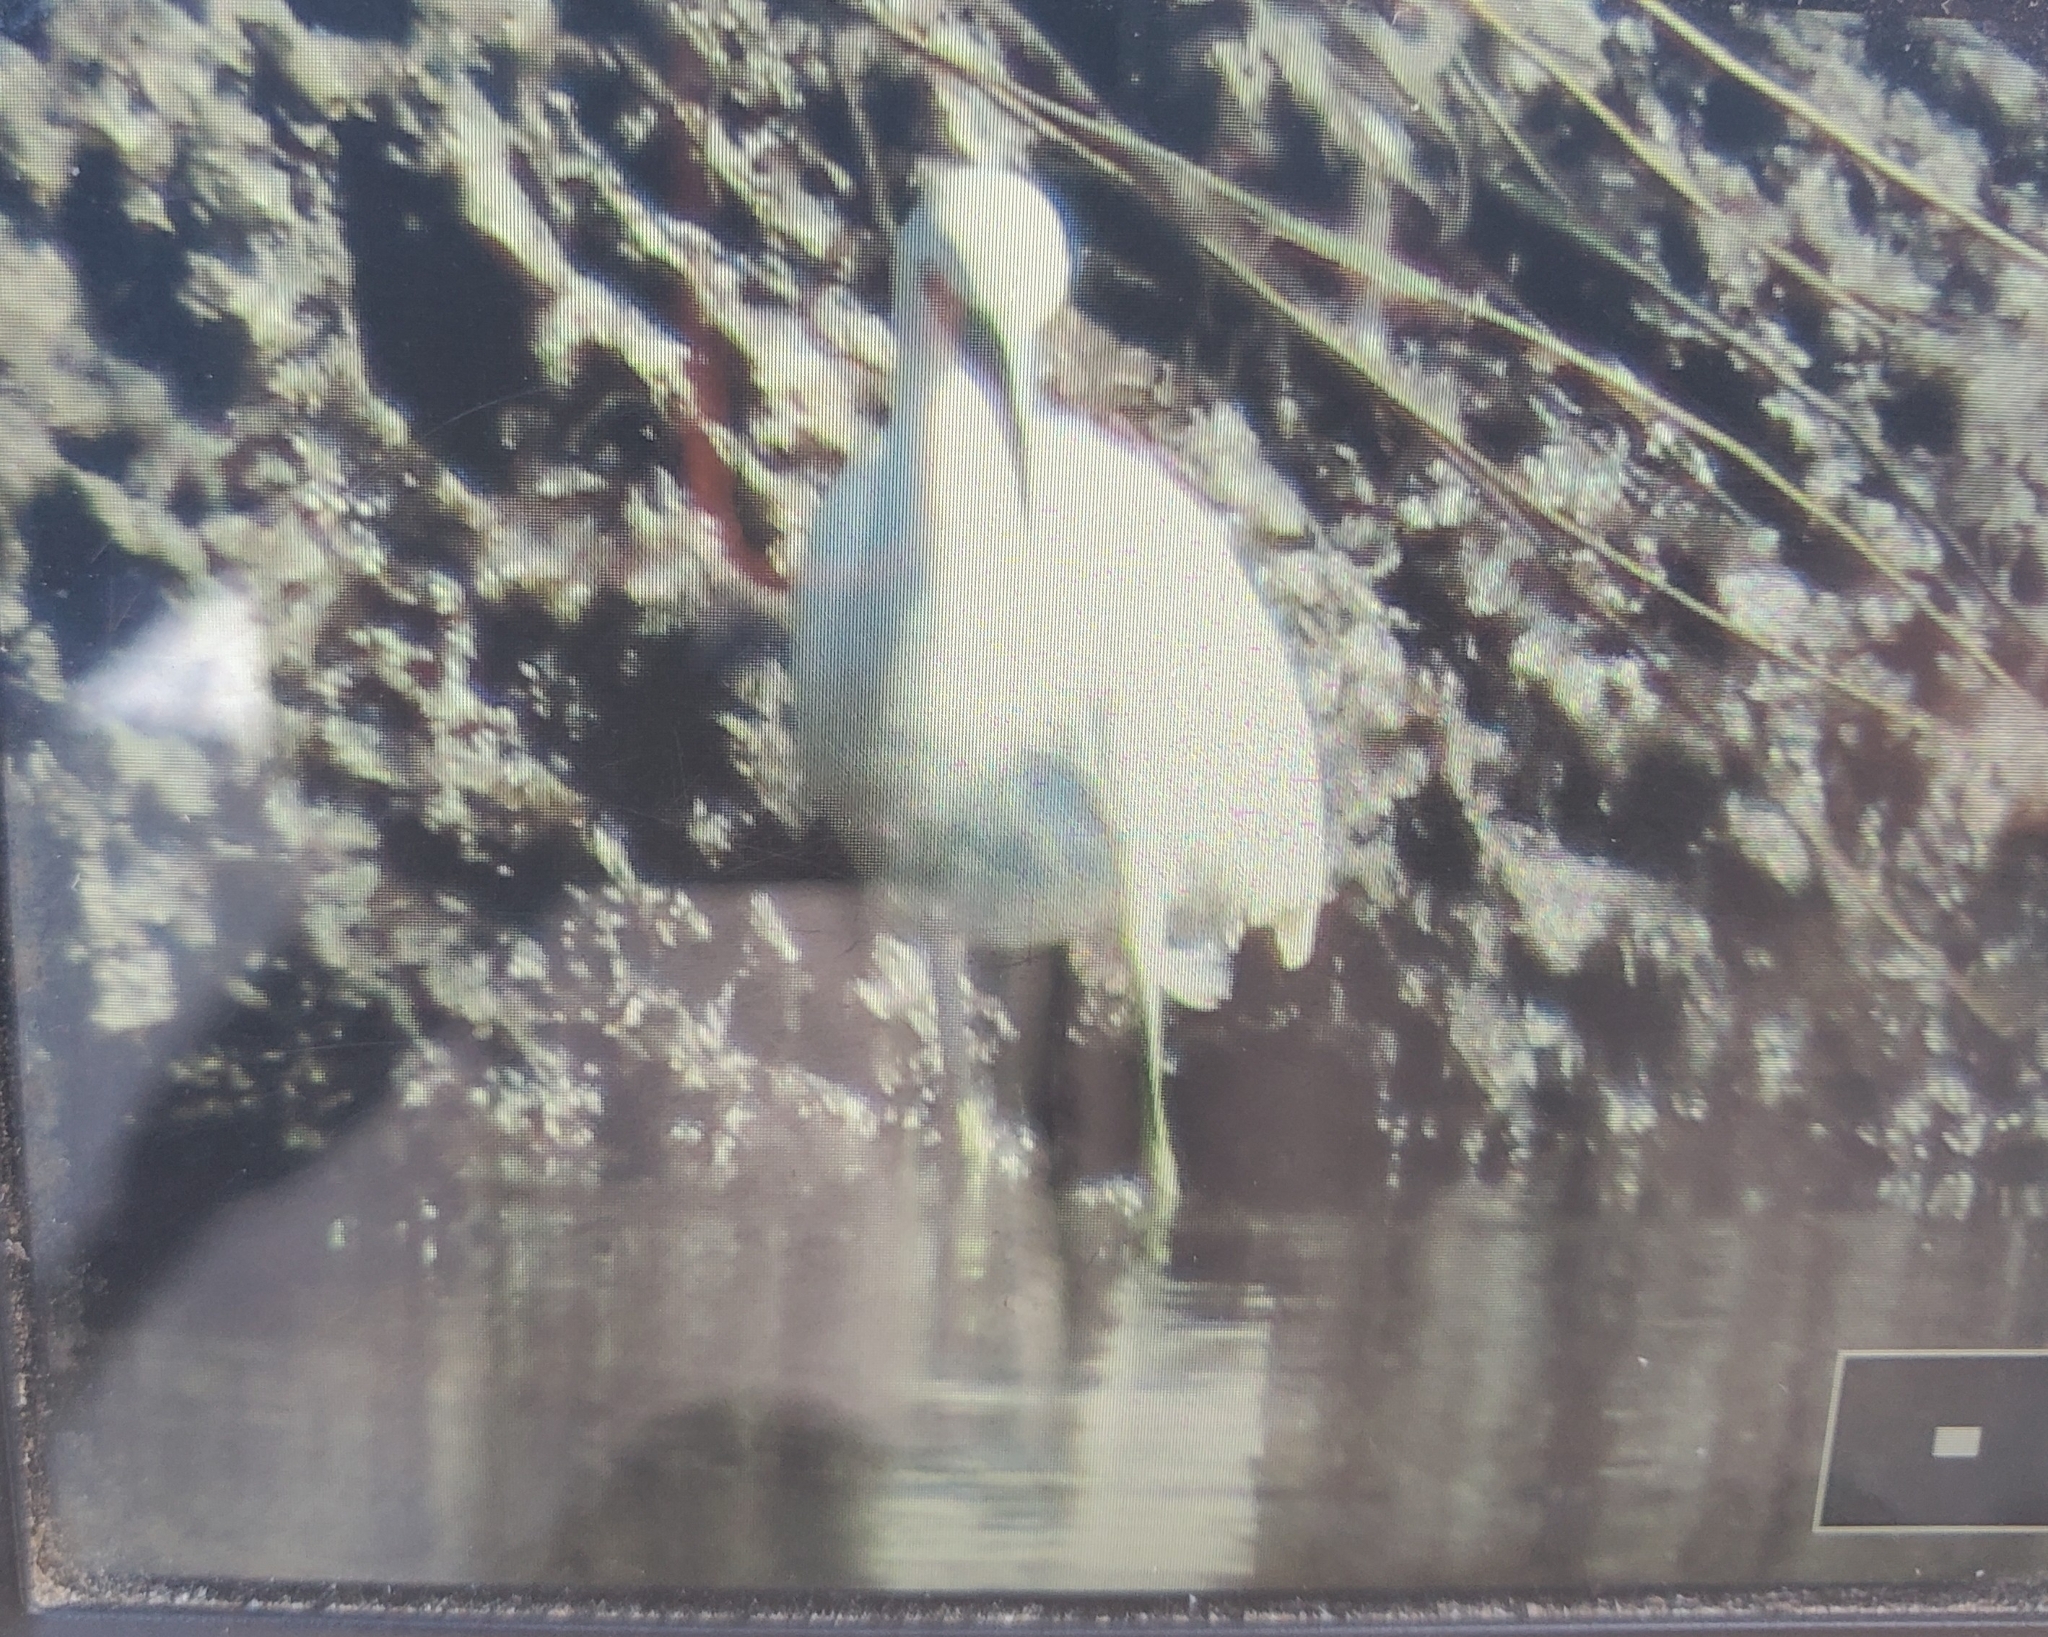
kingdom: Animalia
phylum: Chordata
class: Aves
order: Pelecaniformes
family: Ardeidae
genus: Egretta
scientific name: Egretta thula
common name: Snowy egret
